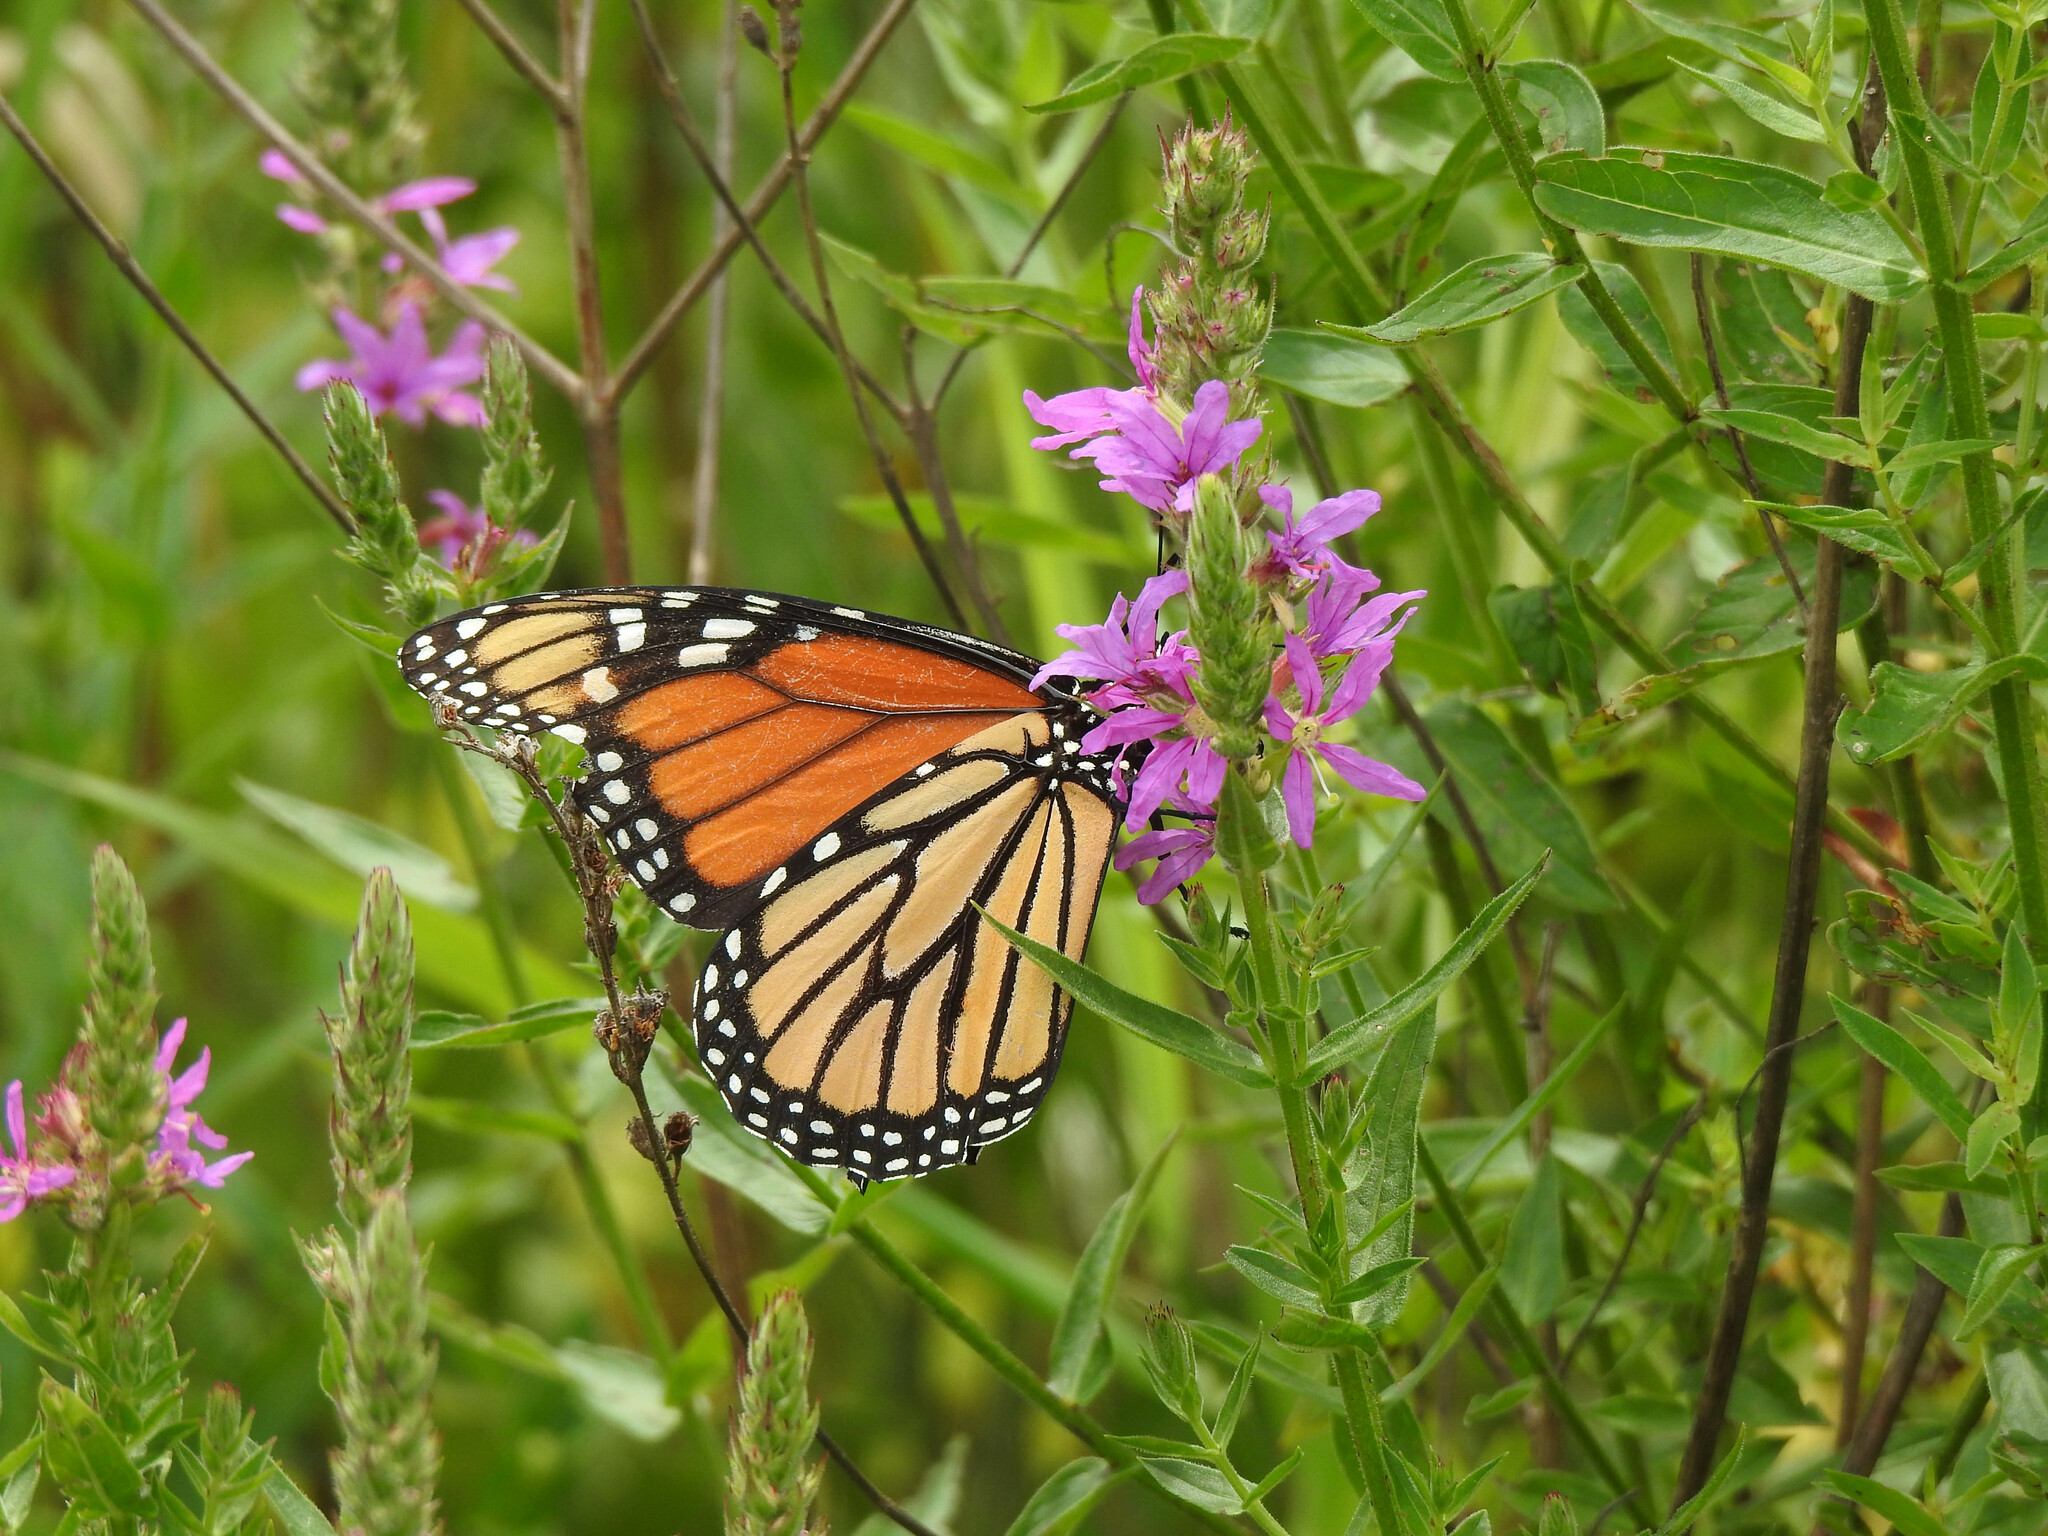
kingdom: Animalia
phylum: Arthropoda
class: Insecta
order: Lepidoptera
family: Nymphalidae
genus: Danaus
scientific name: Danaus plexippus
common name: Monarch
